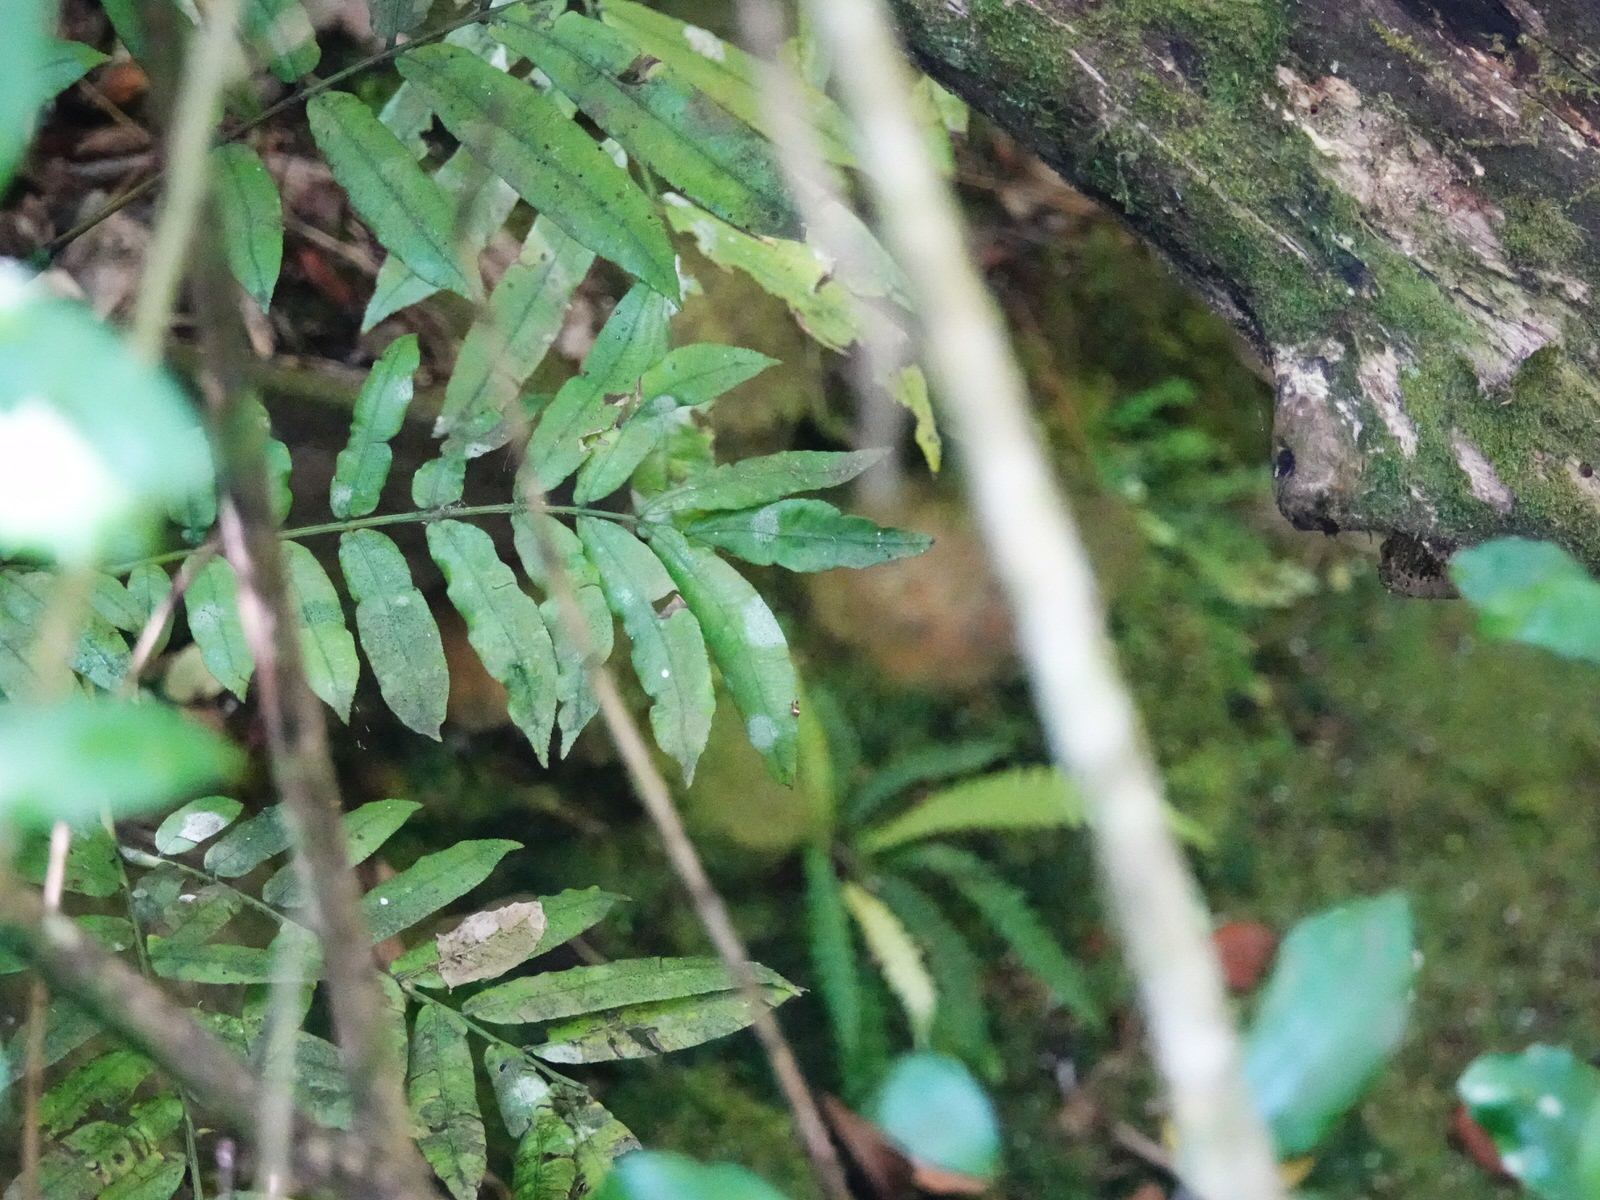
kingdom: Plantae
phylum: Tracheophyta
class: Polypodiopsida
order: Marattiales
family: Marattiaceae
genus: Ptisana
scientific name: Ptisana salicina
